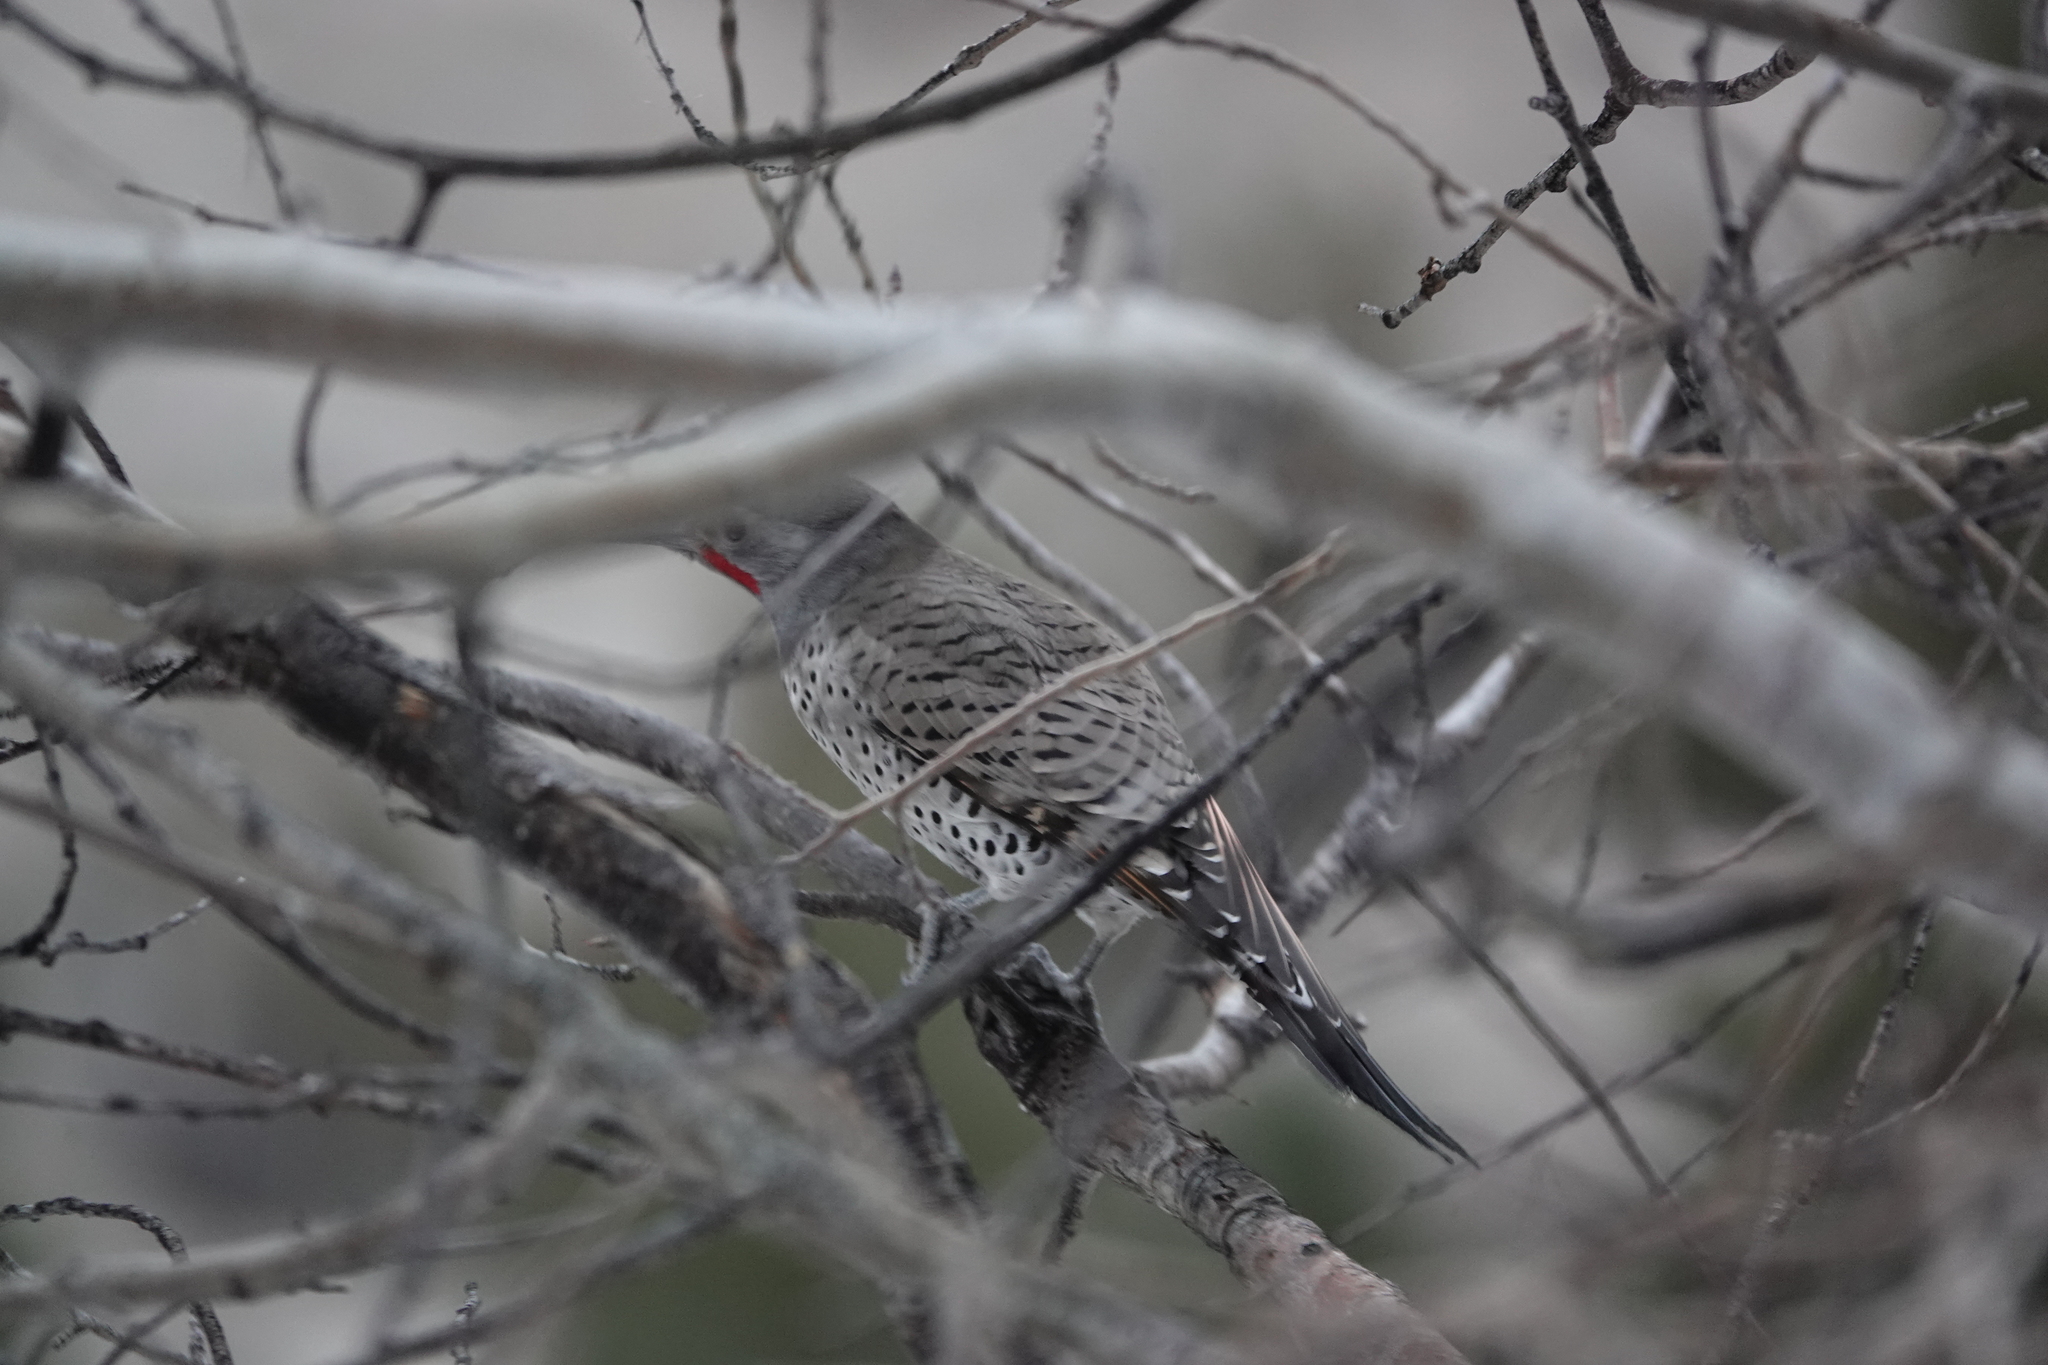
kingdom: Animalia
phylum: Chordata
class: Aves
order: Piciformes
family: Picidae
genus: Colaptes
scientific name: Colaptes auratus
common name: Northern flicker
